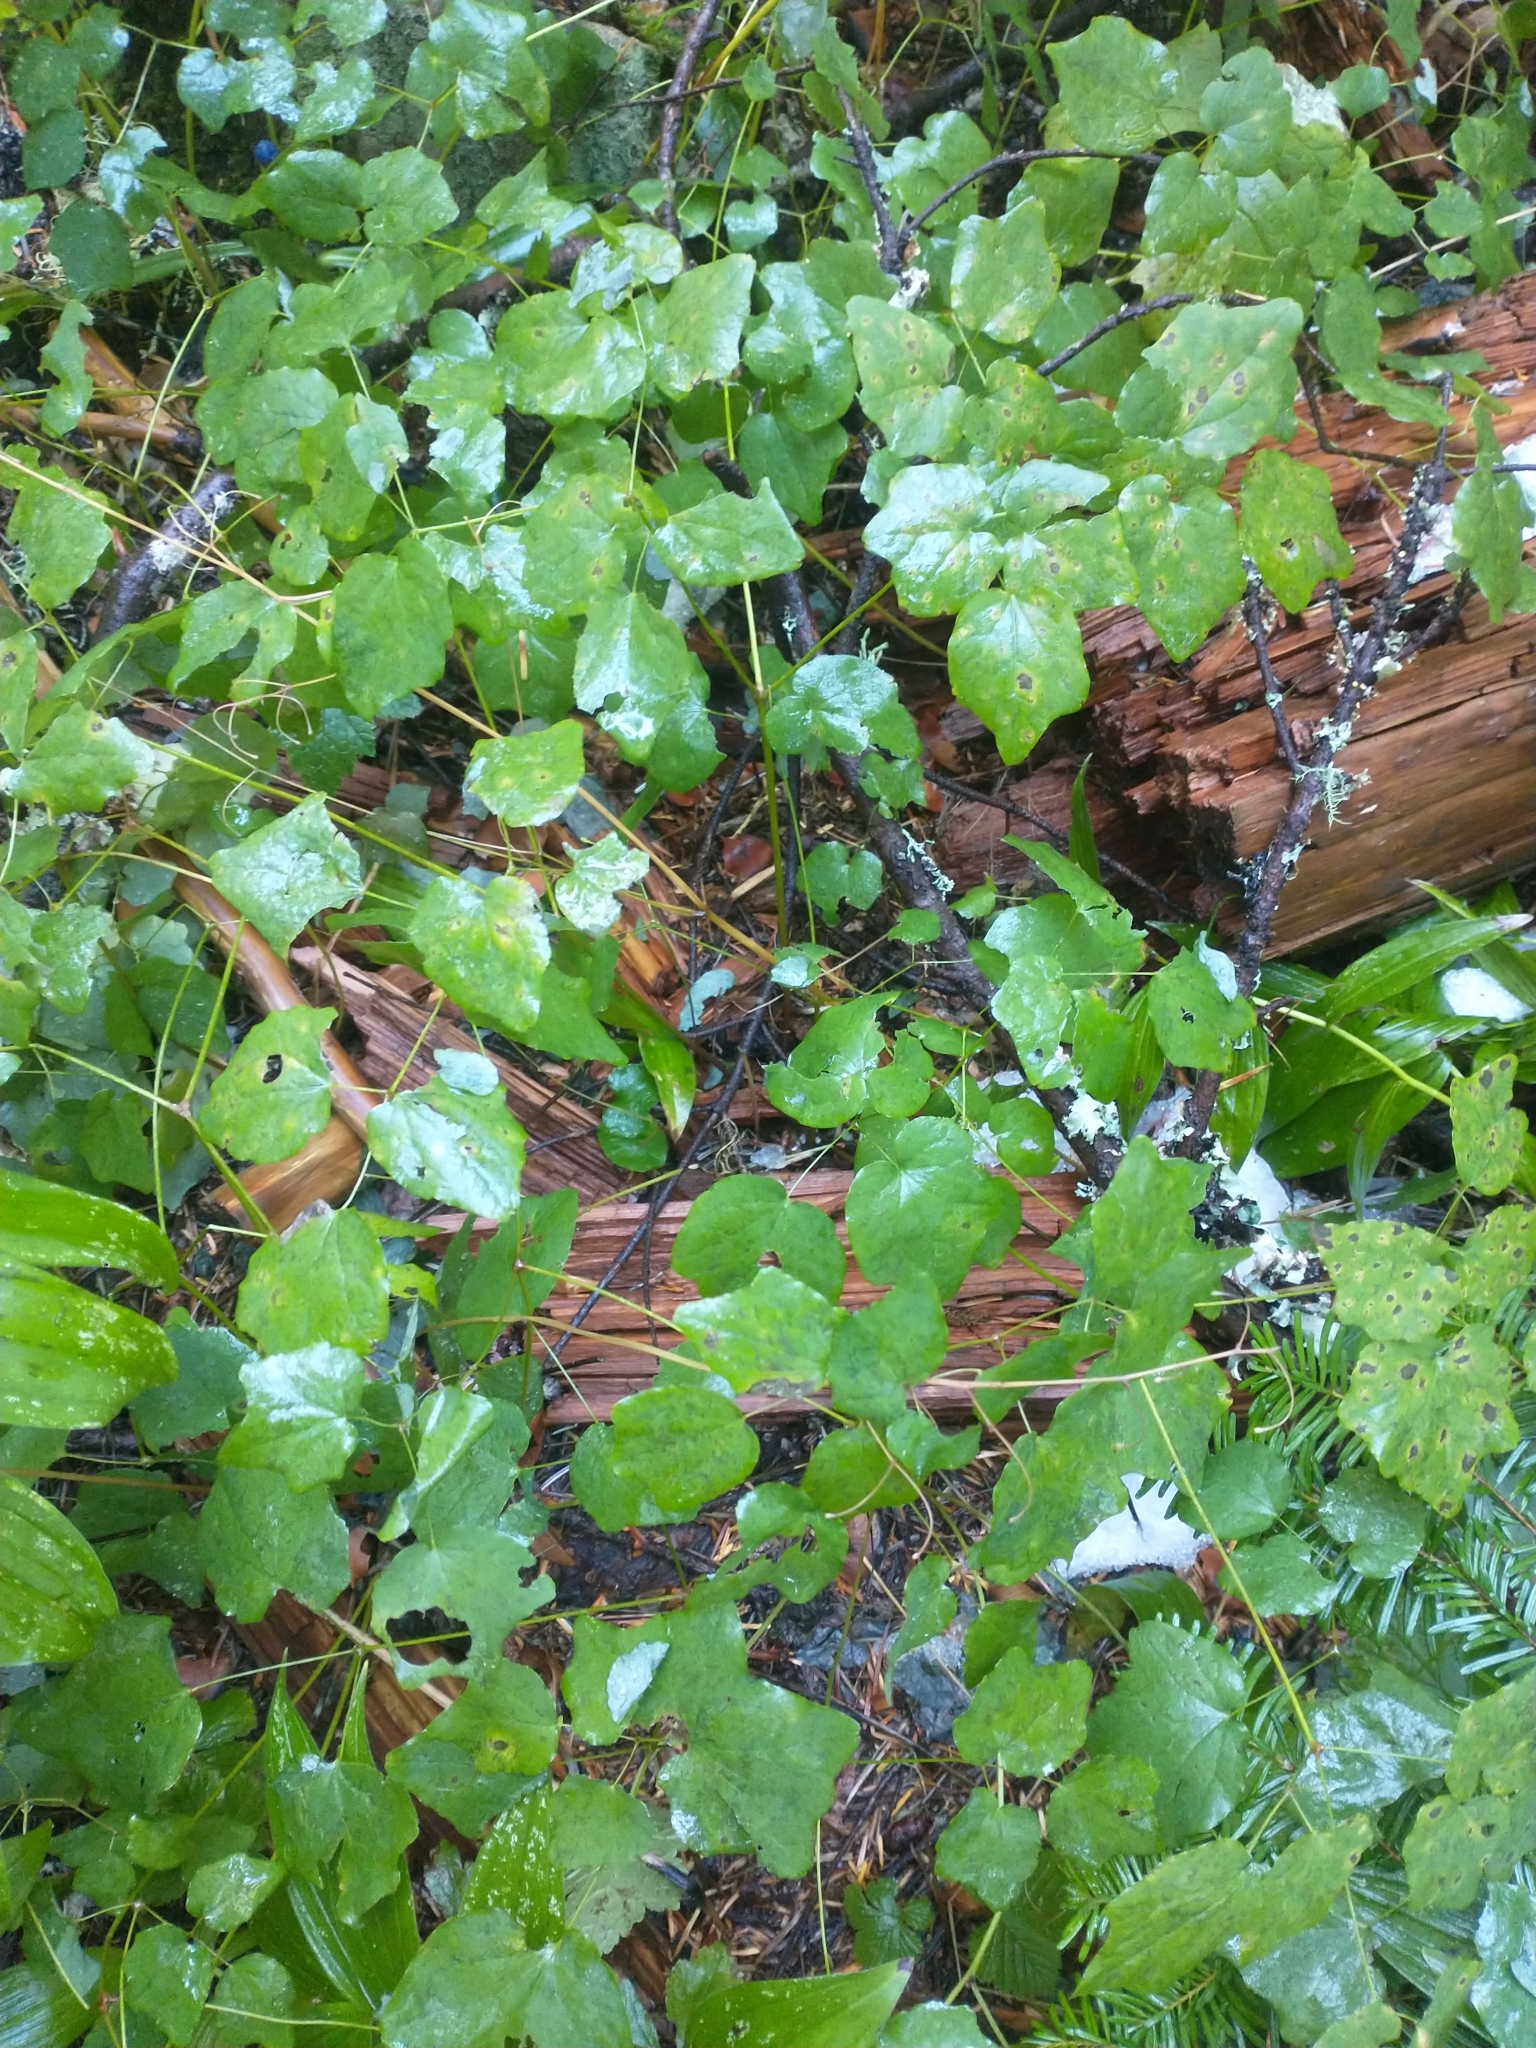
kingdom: Plantae
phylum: Tracheophyta
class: Magnoliopsida
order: Ranunculales
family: Berberidaceae
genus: Vancouveria
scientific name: Vancouveria hexandra
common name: Northern inside-out-flower
